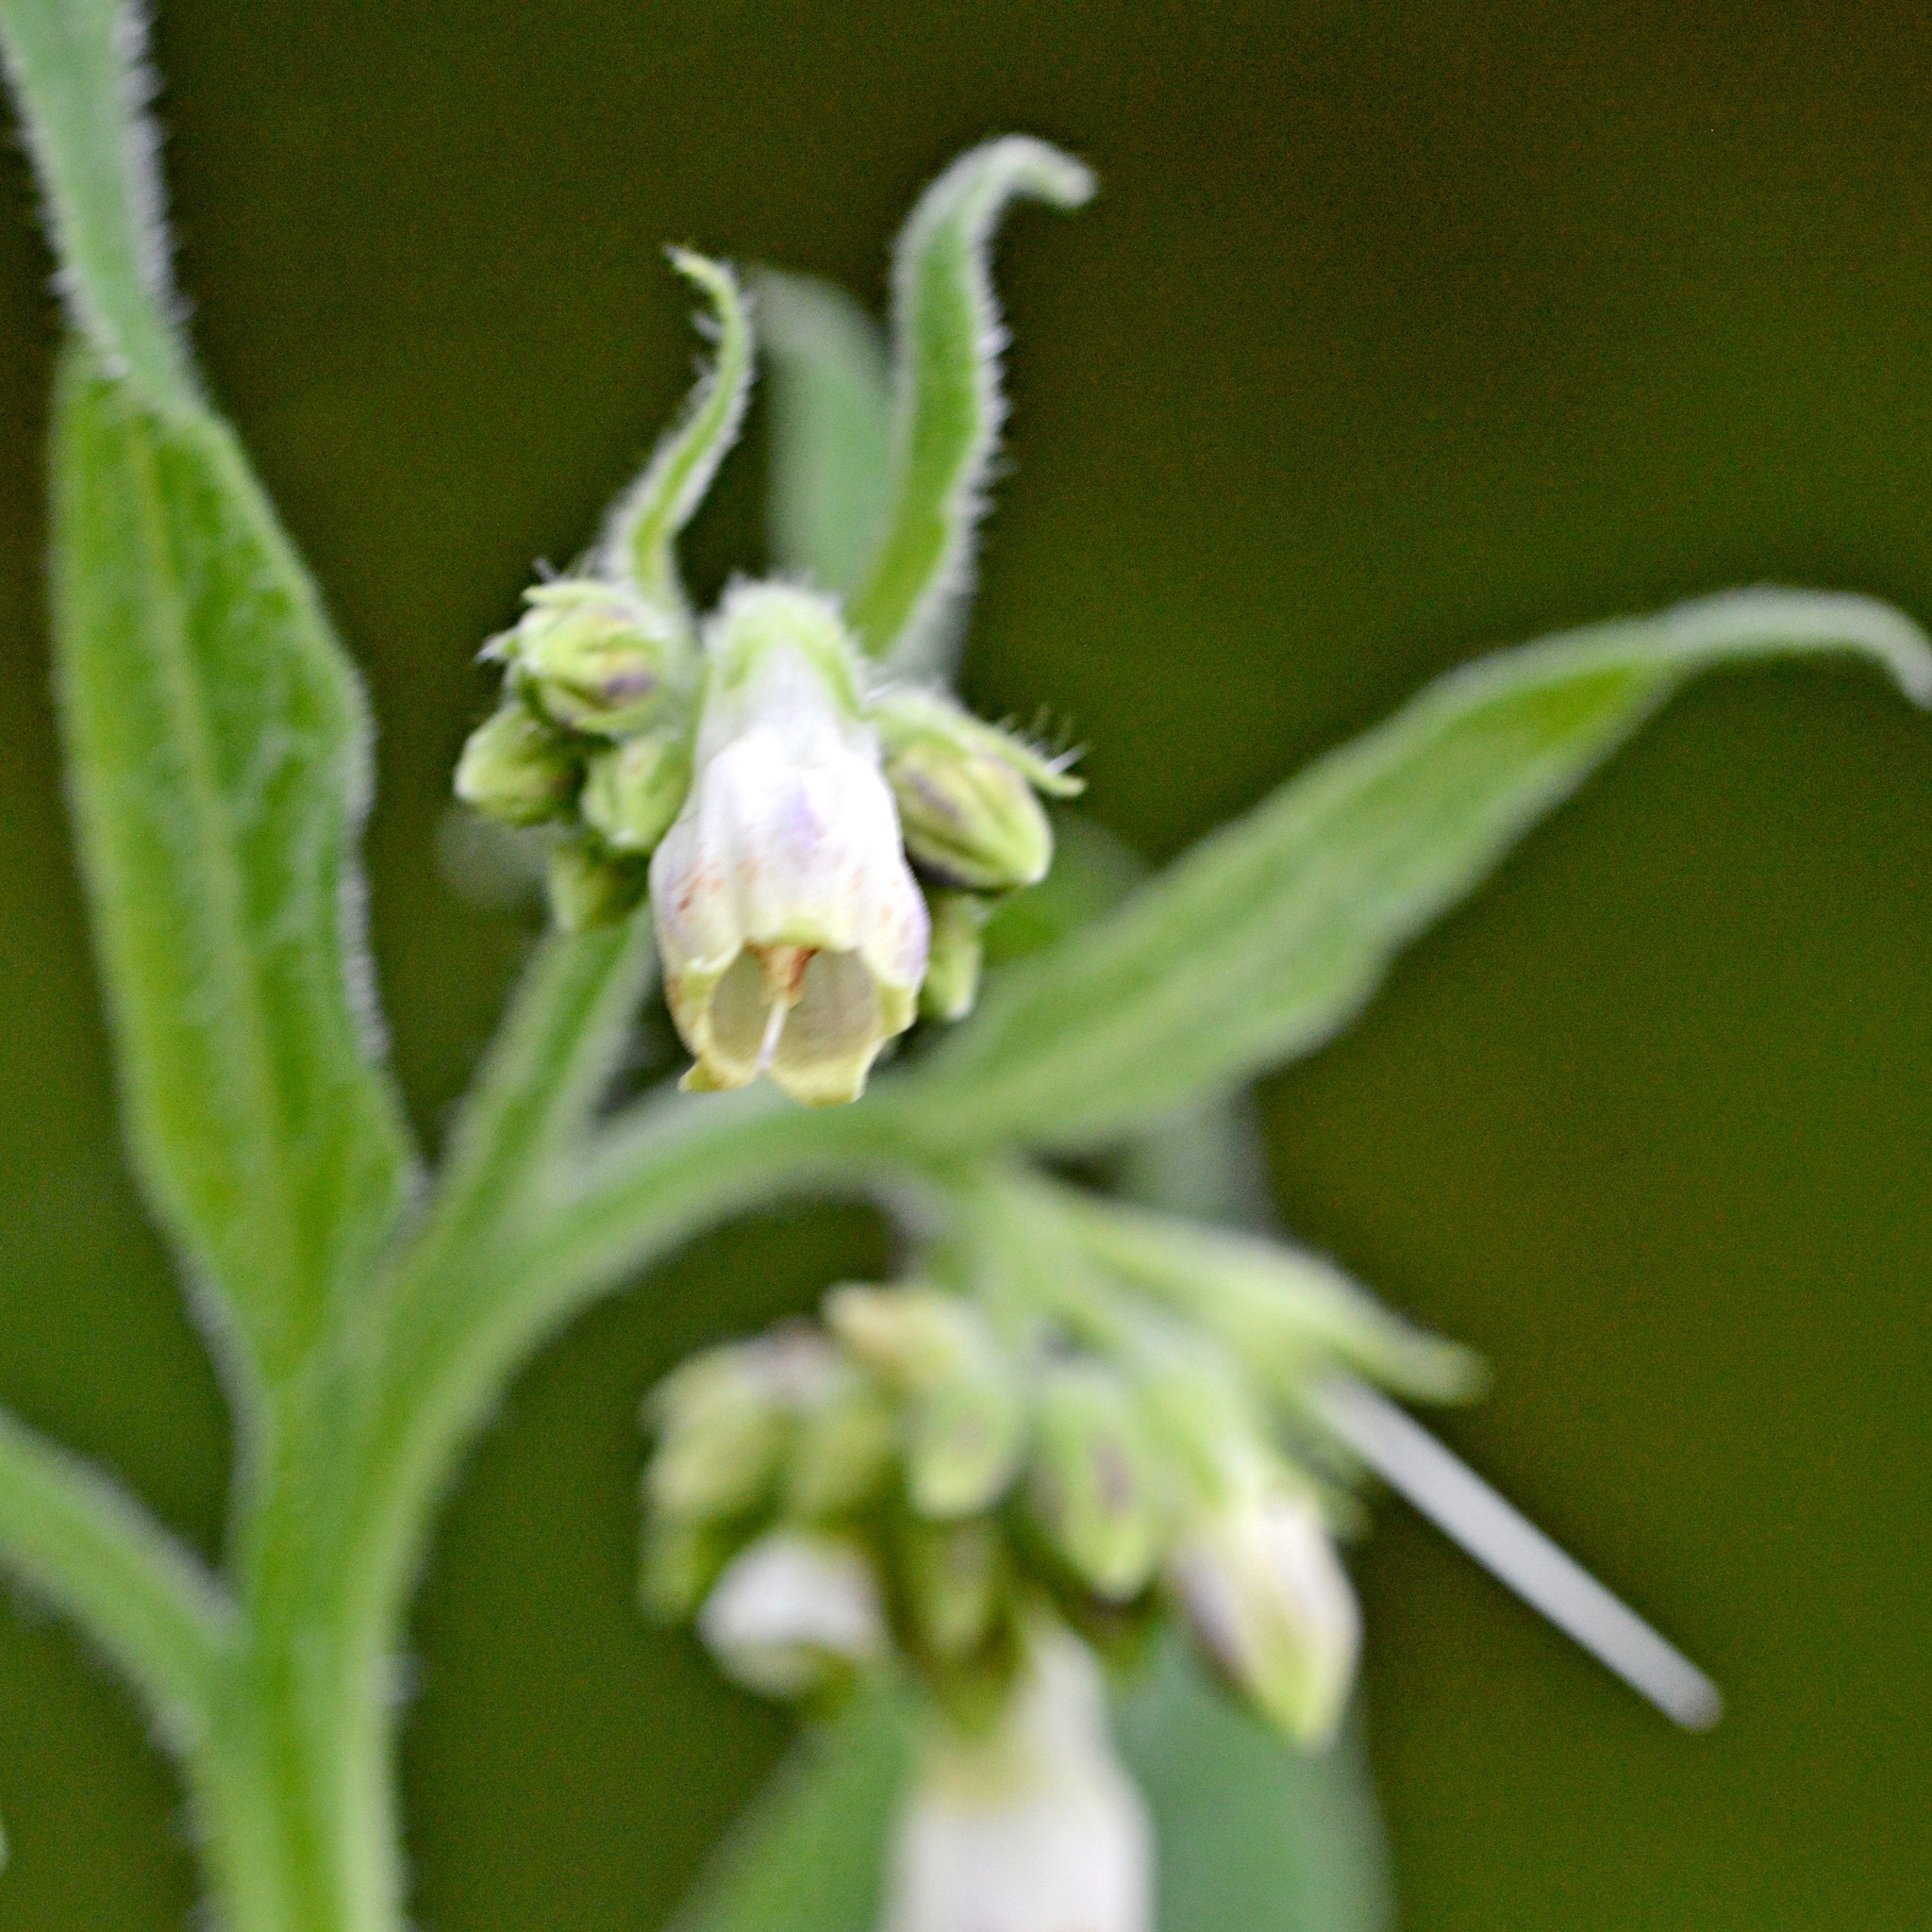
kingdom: Plantae
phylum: Tracheophyta
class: Magnoliopsida
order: Boraginales
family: Boraginaceae
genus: Symphytum
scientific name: Symphytum officinale
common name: Common comfrey
